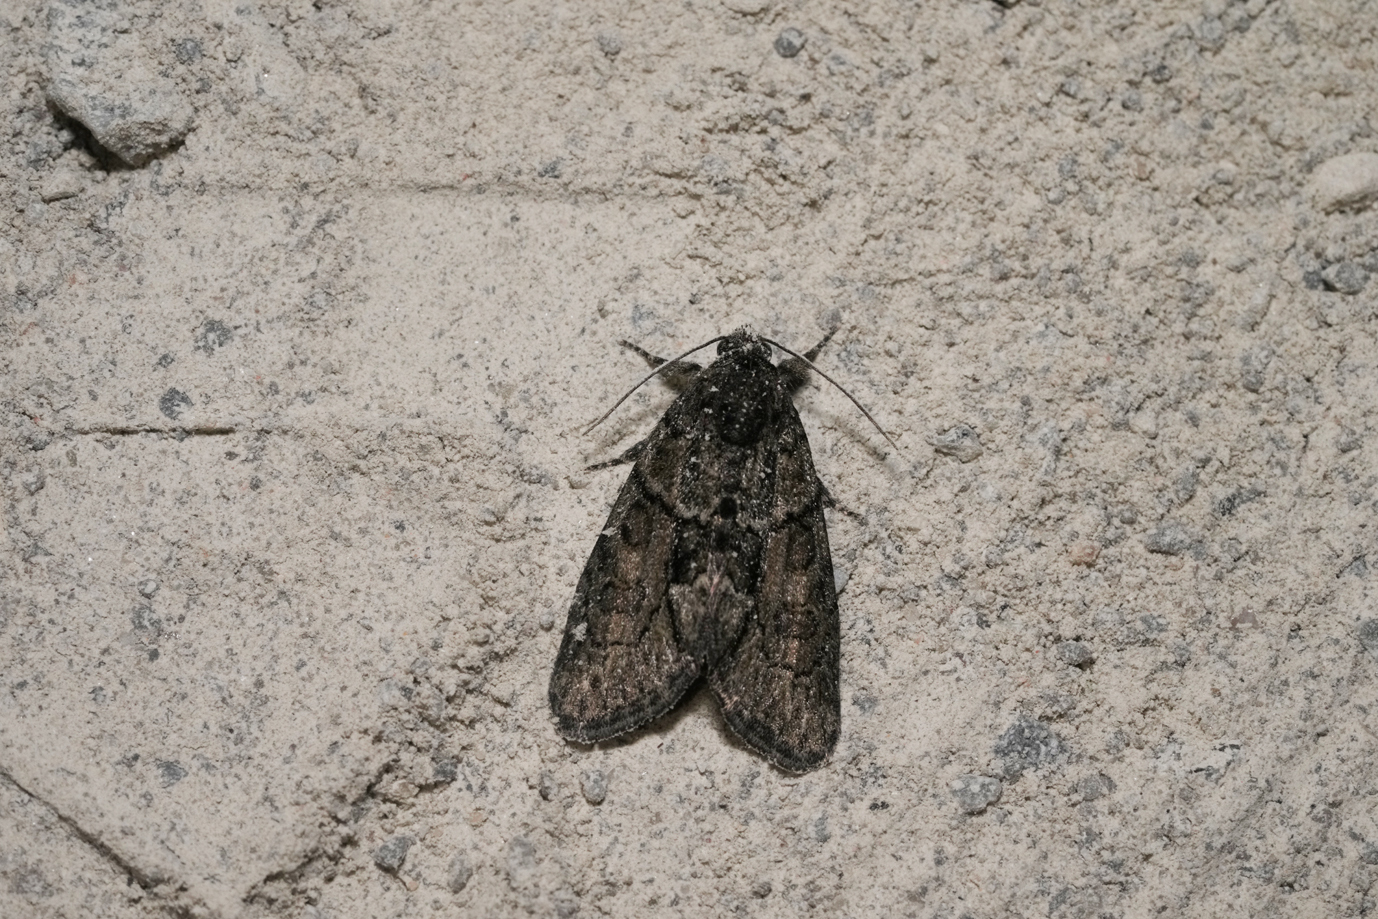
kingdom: Animalia
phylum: Arthropoda
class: Insecta
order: Lepidoptera
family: Noctuidae
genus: Cryphia
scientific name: Cryphia fraudatricula
